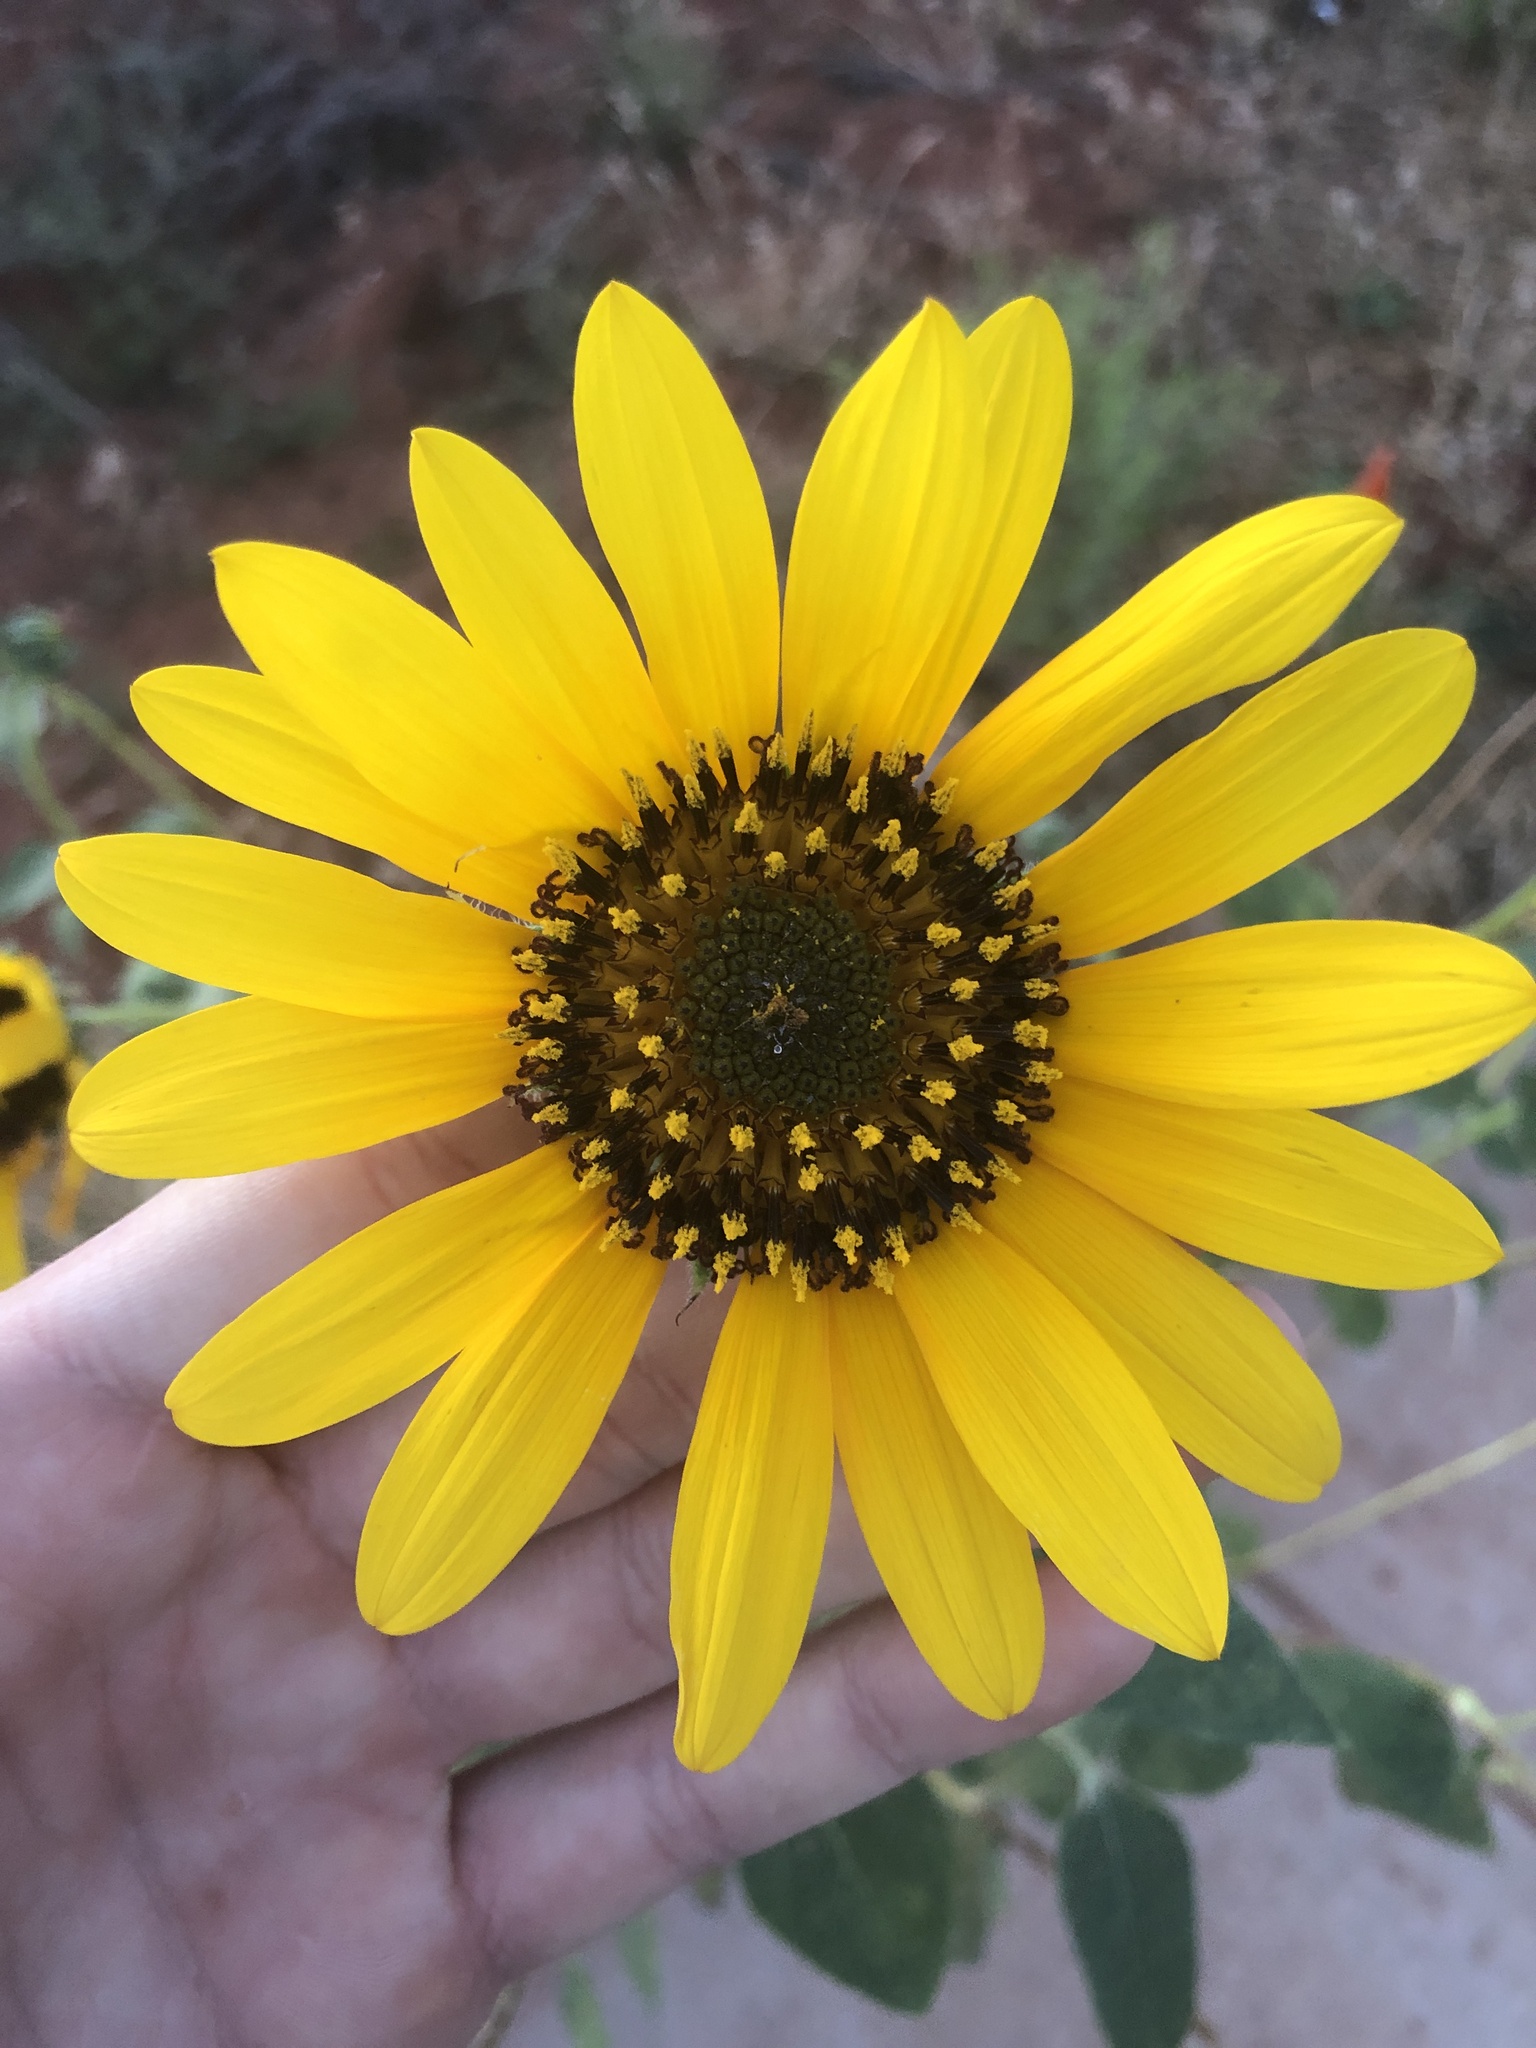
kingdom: Plantae
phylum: Tracheophyta
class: Magnoliopsida
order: Asterales
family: Asteraceae
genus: Helianthus
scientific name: Helianthus annuus
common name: Sunflower
